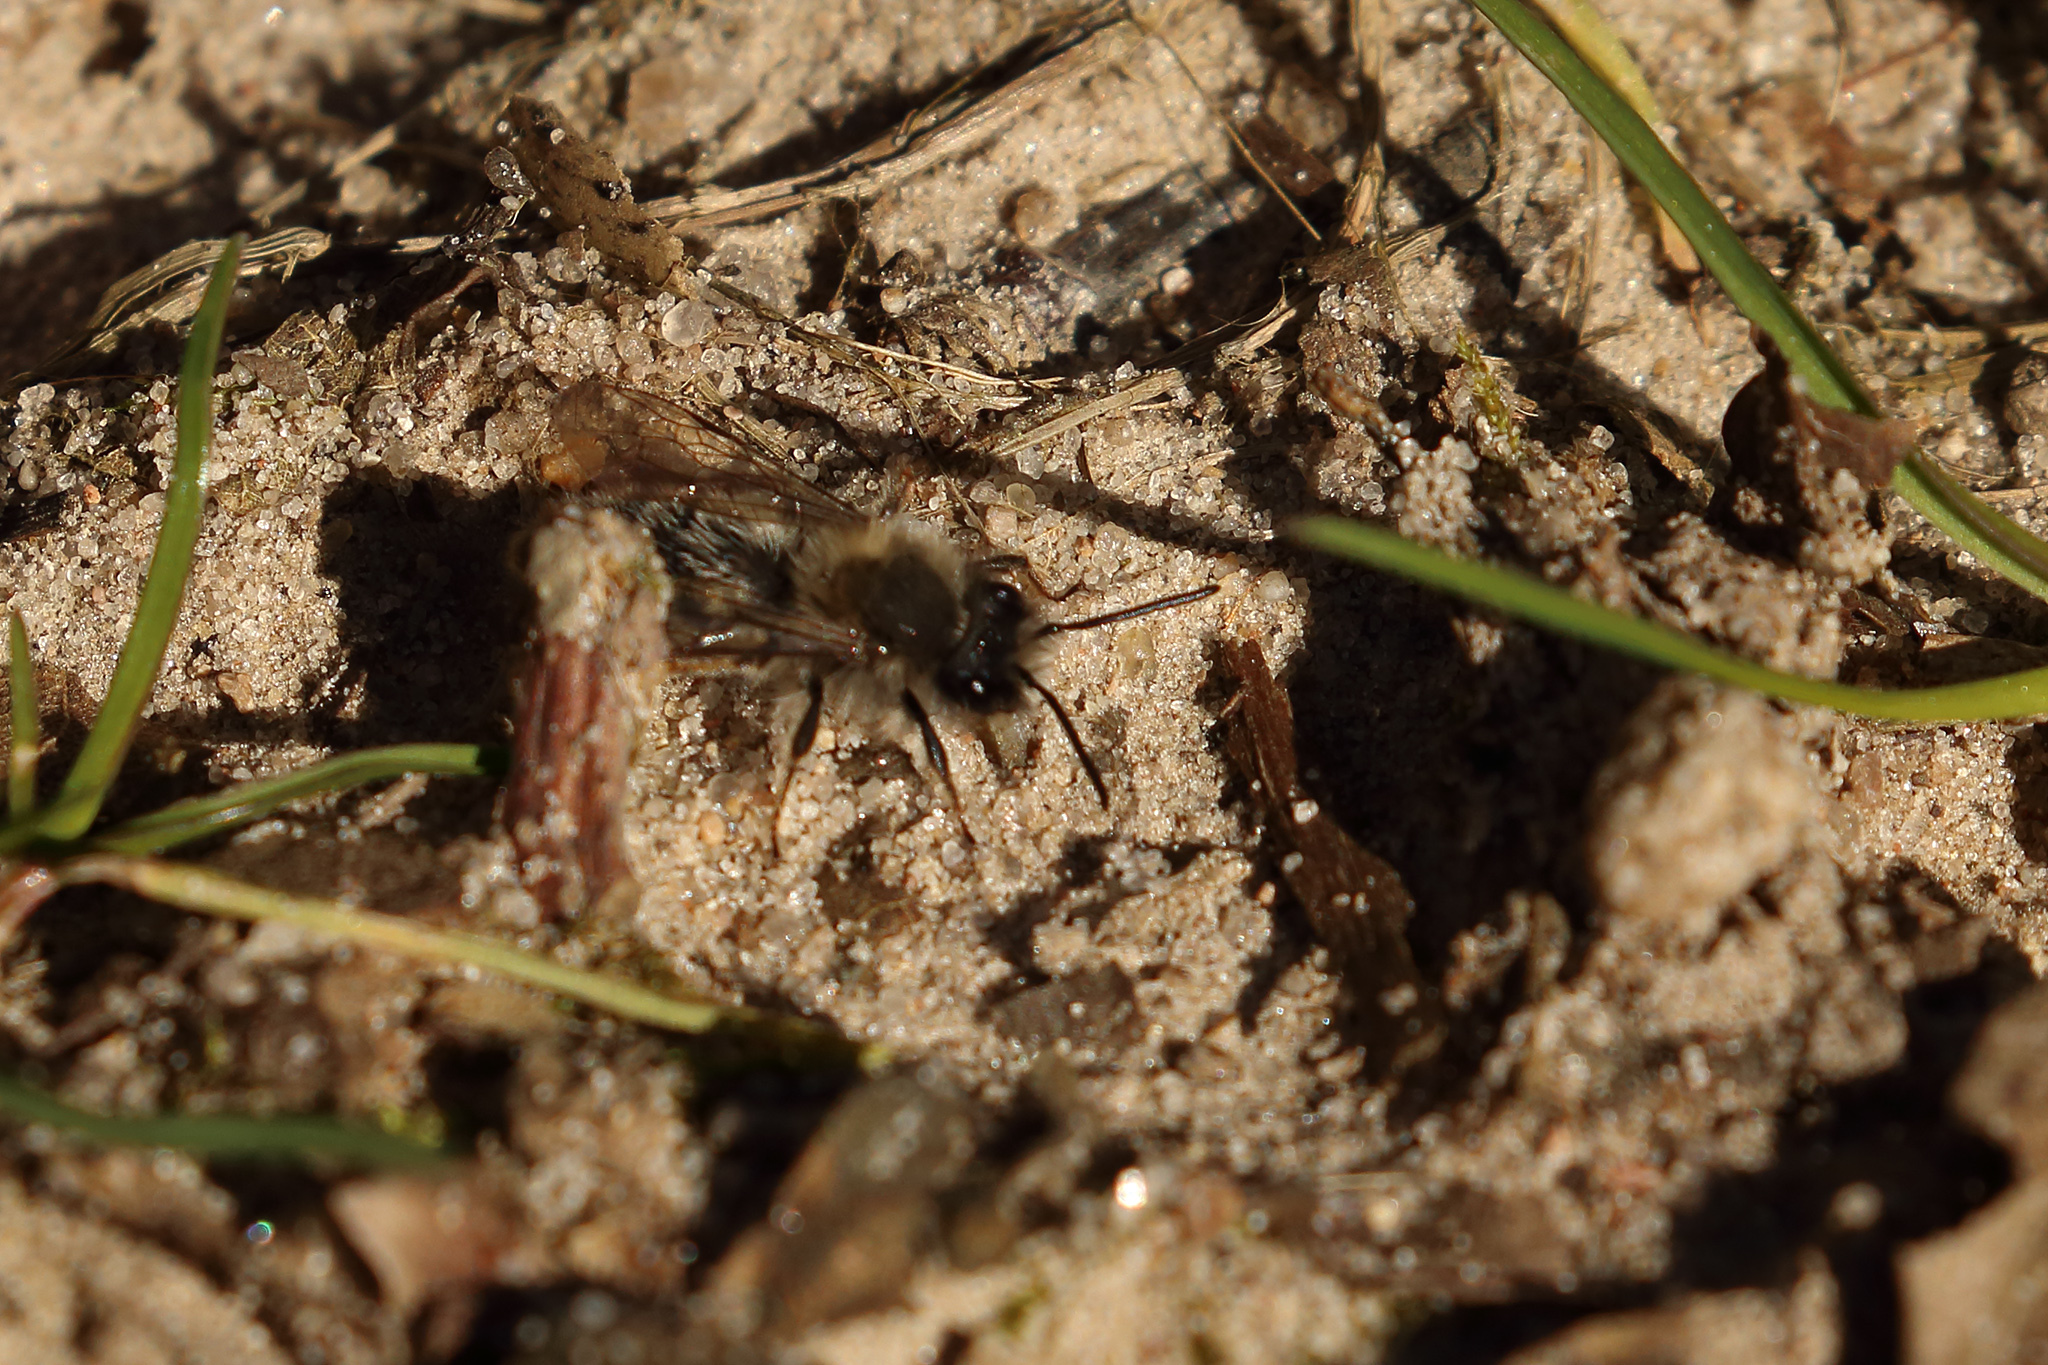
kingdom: Animalia
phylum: Arthropoda
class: Insecta
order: Hymenoptera
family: Colletidae
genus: Colletes
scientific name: Colletes cunicularius
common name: Early colletes
